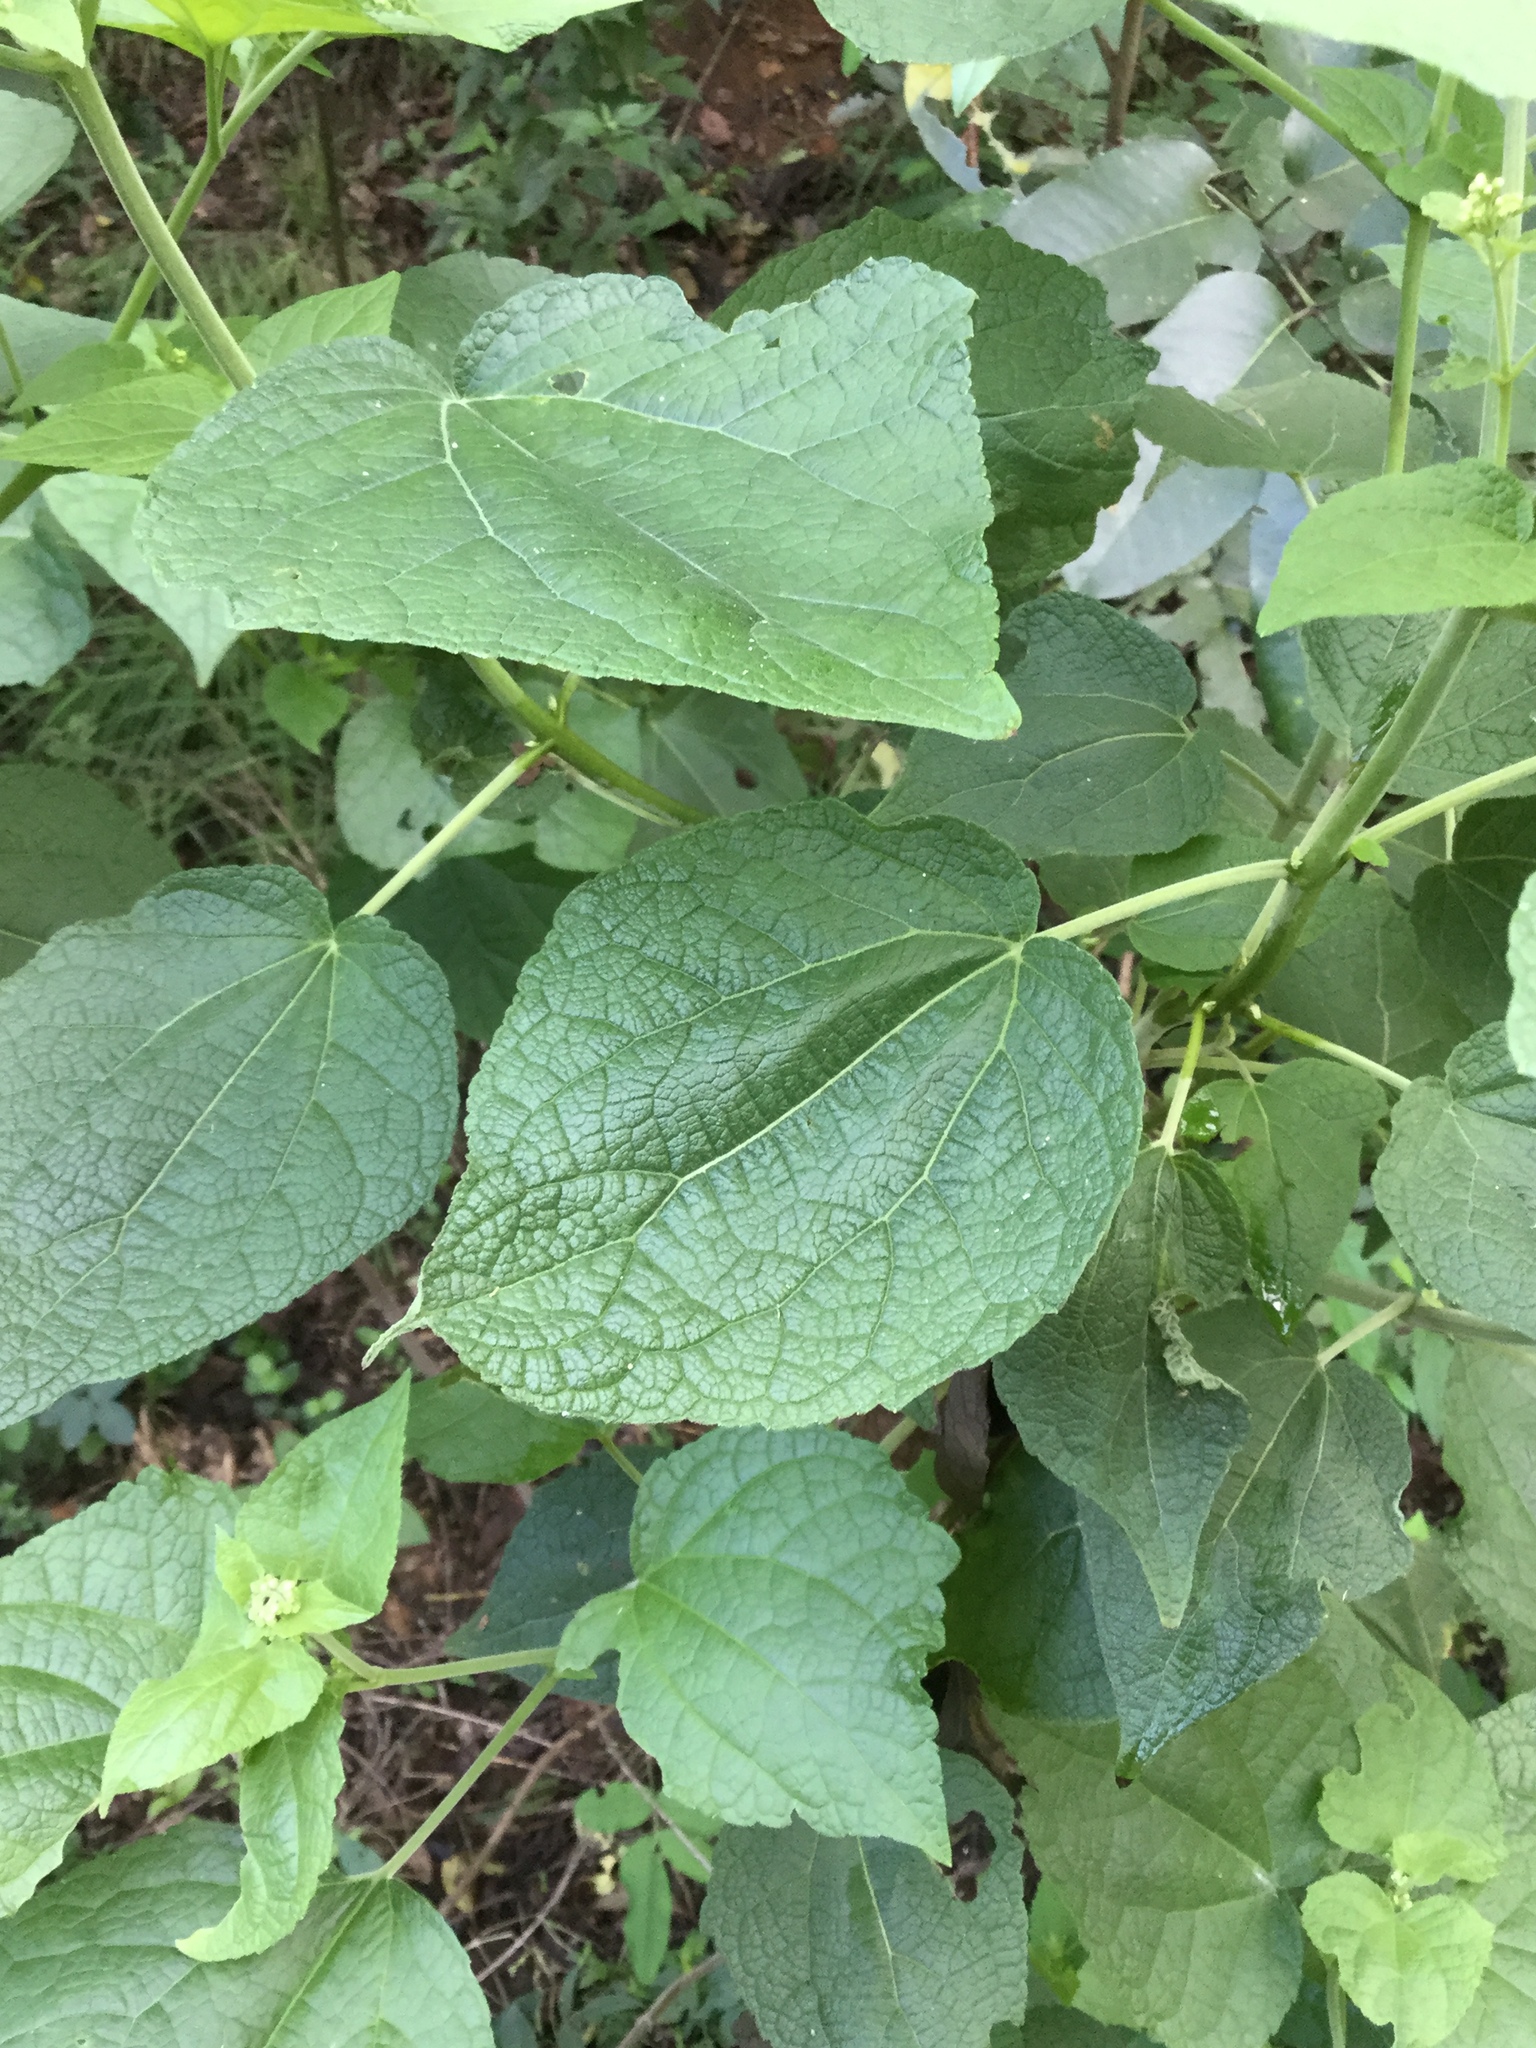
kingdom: Plantae
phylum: Tracheophyta
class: Magnoliopsida
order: Asterales
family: Asteraceae
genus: Peteravenia
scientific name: Peteravenia malvifolia
